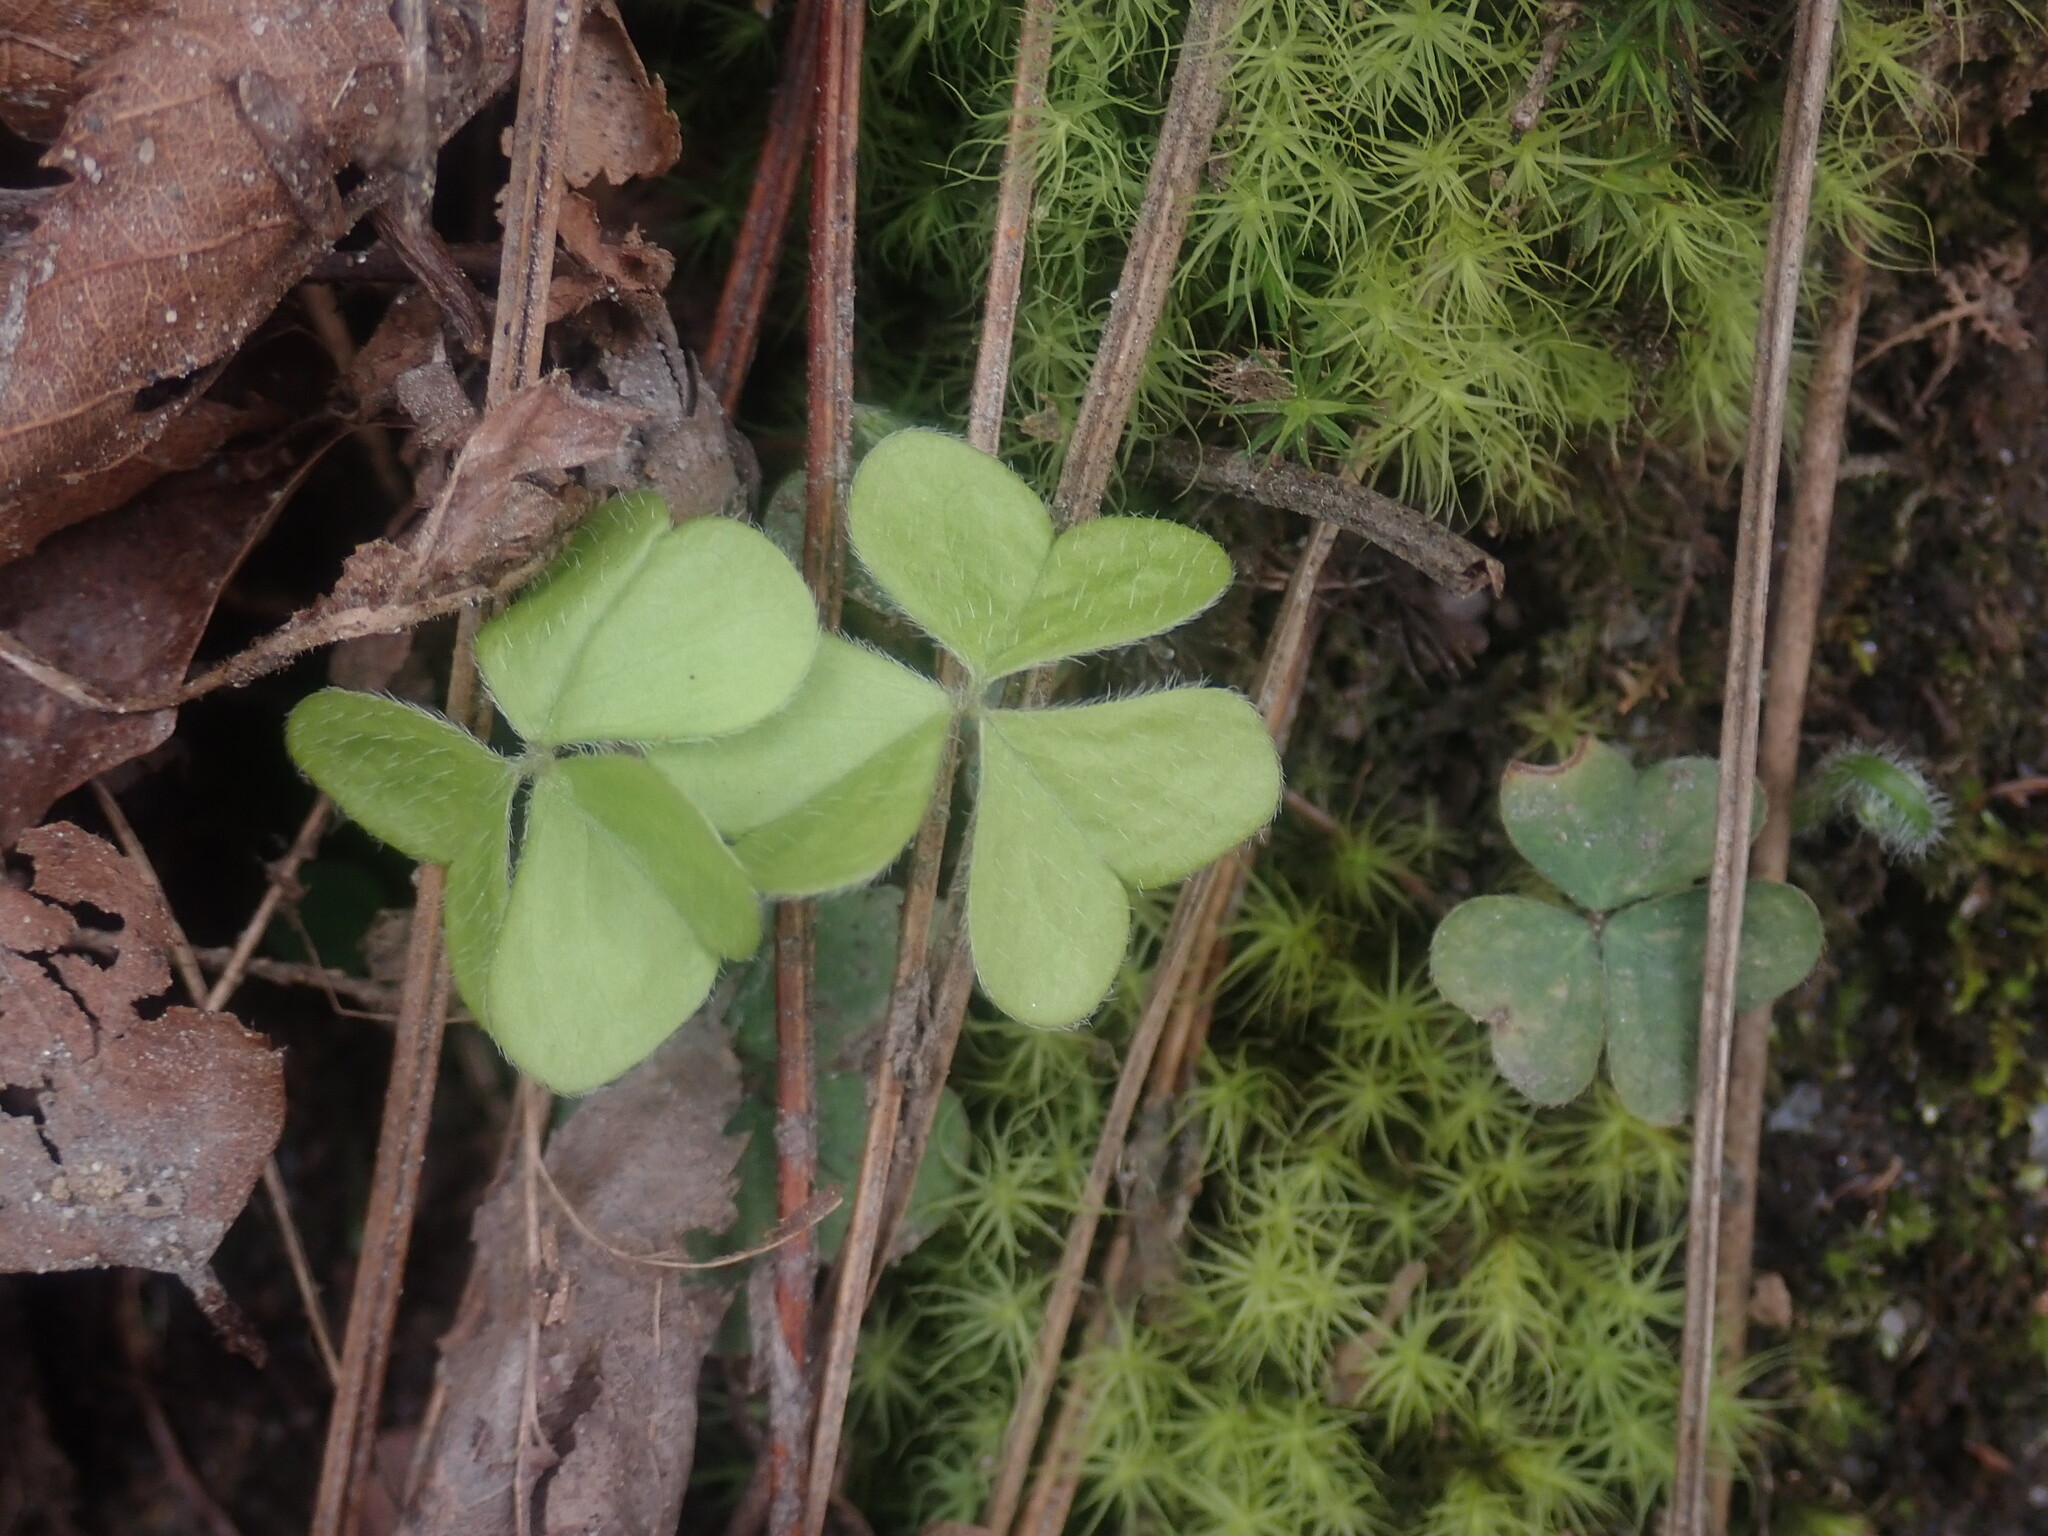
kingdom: Plantae
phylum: Tracheophyta
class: Magnoliopsida
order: Oxalidales
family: Oxalidaceae
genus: Oxalis
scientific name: Oxalis montana
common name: American wood-sorrel
